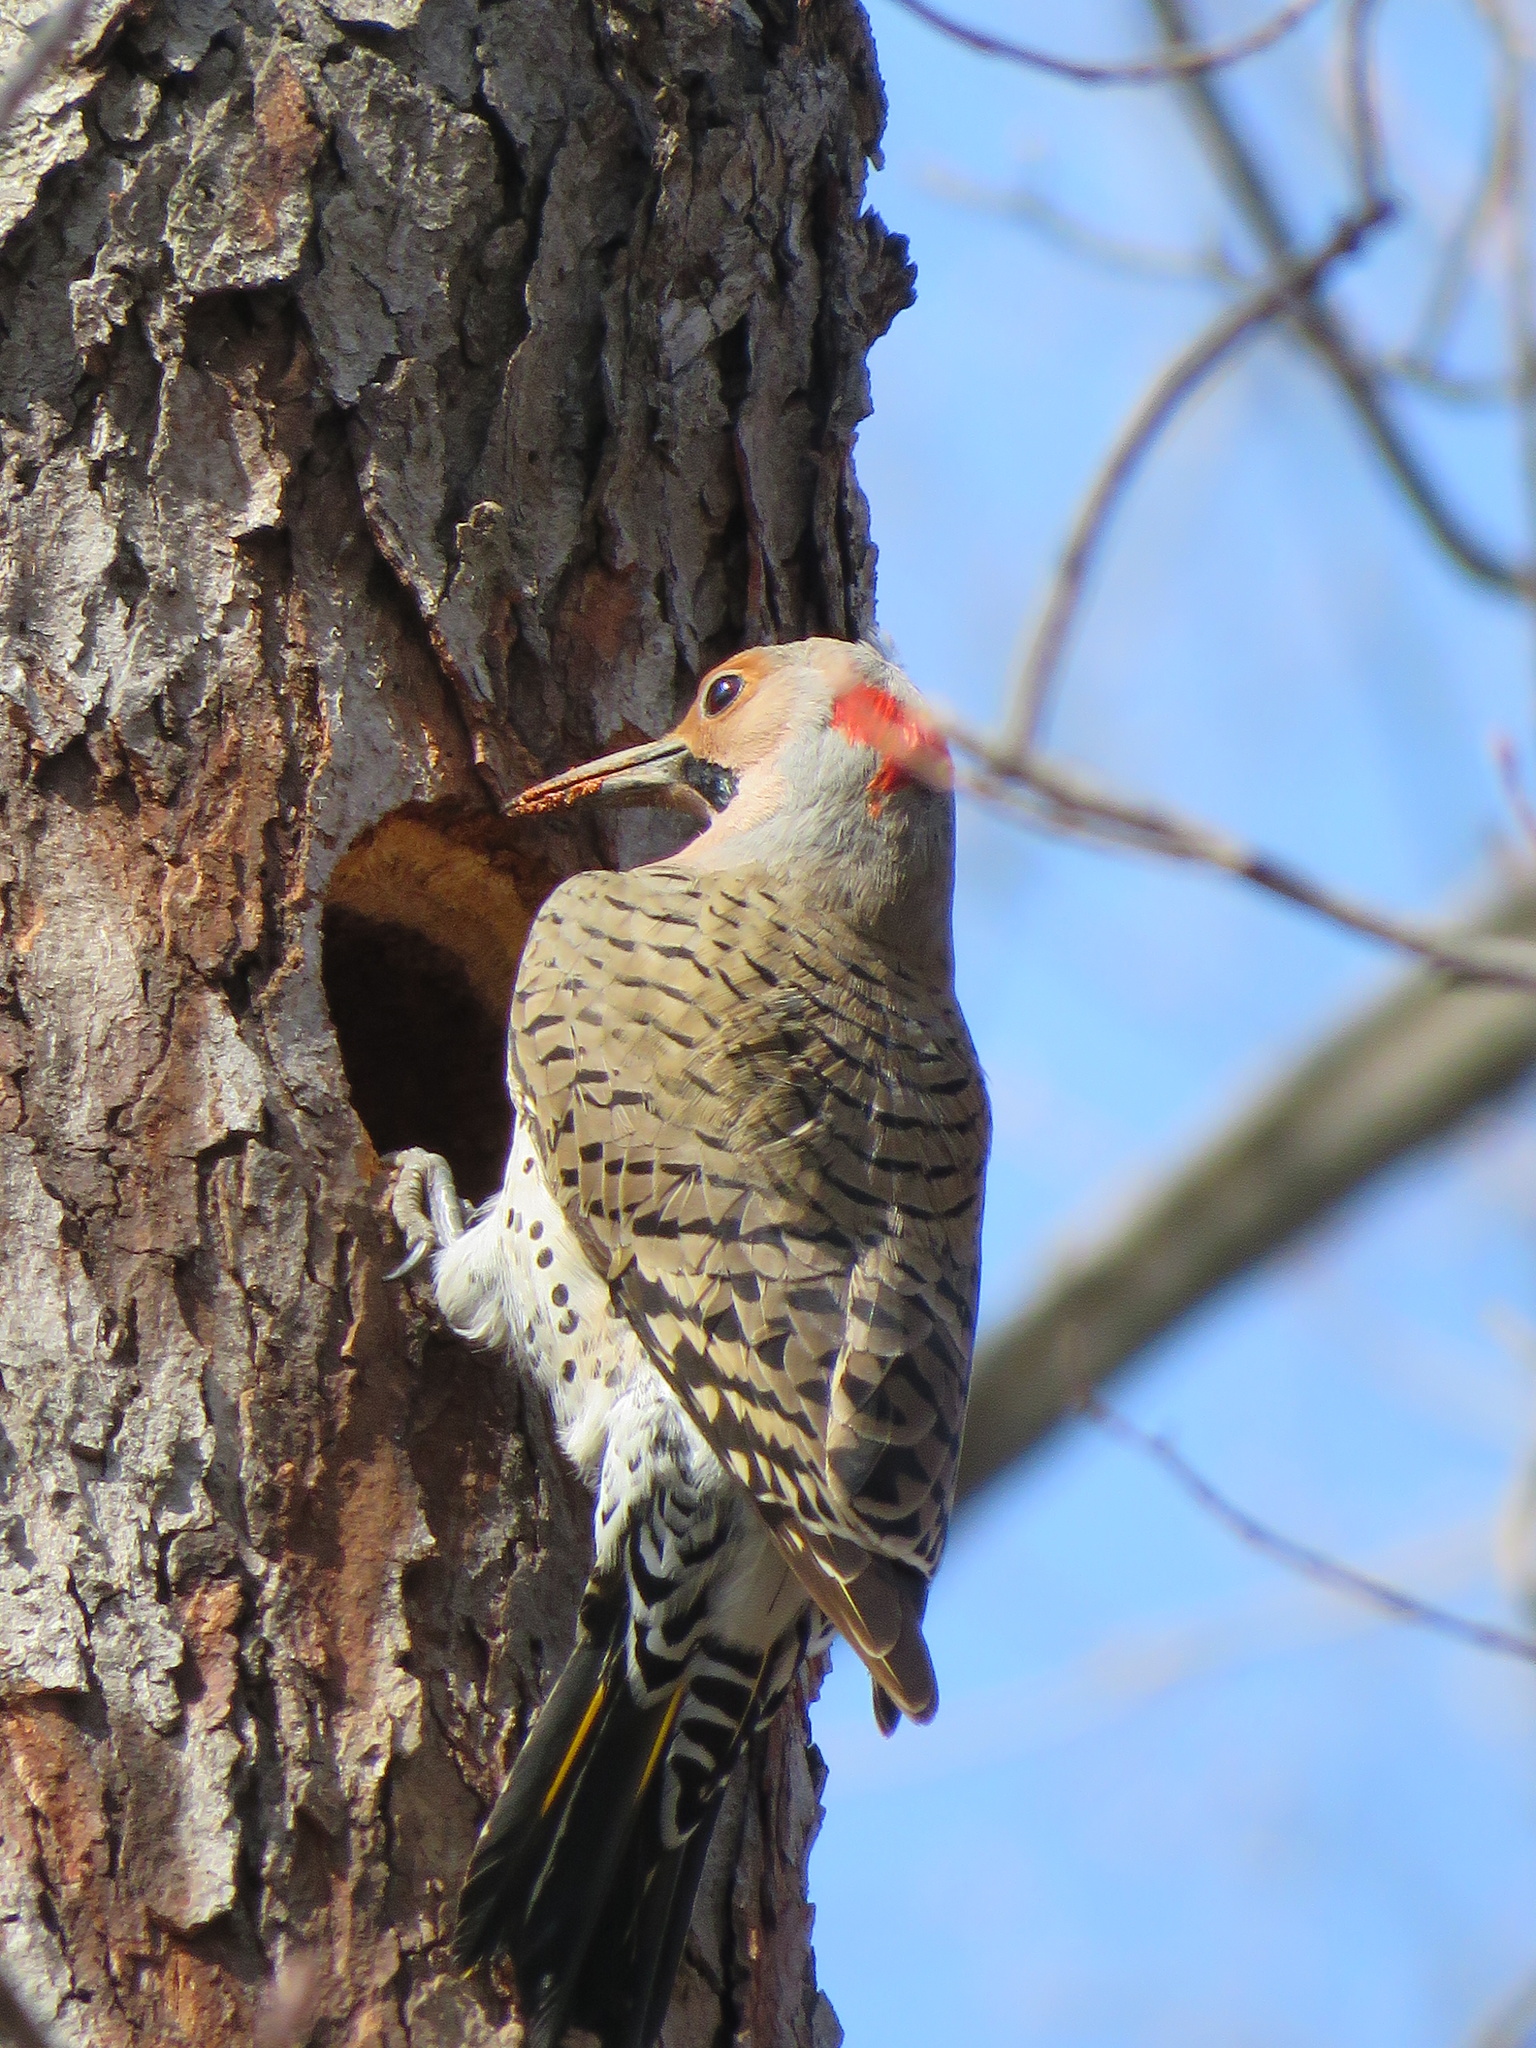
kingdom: Animalia
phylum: Chordata
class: Aves
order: Piciformes
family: Picidae
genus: Colaptes
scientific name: Colaptes auratus
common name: Northern flicker
